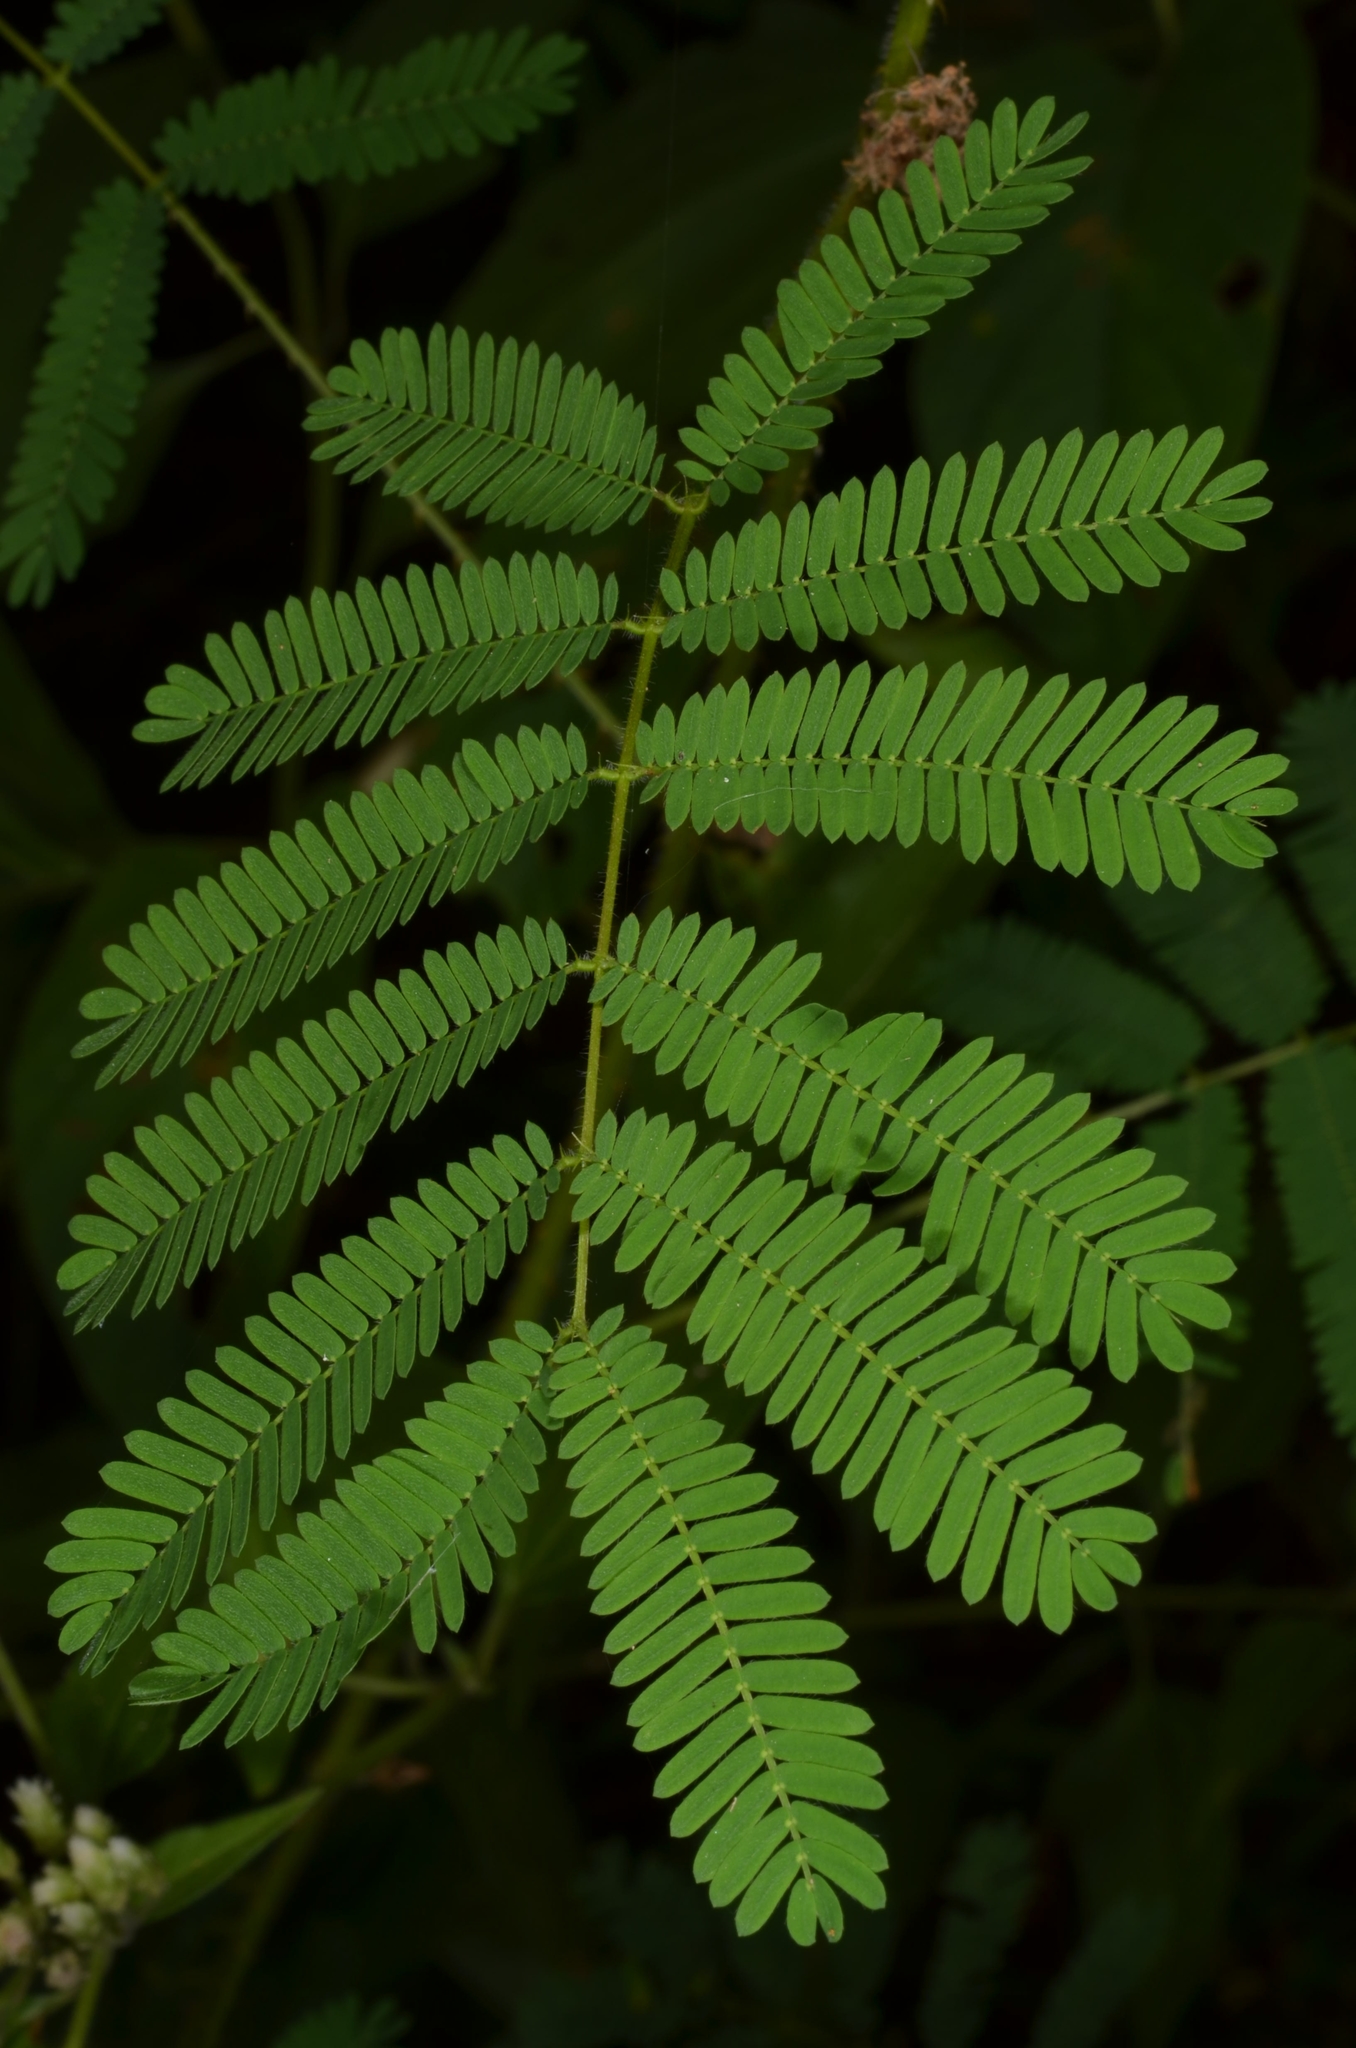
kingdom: Plantae
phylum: Tracheophyta
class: Magnoliopsida
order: Fabales
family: Fabaceae
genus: Mimosa
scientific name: Mimosa diplotricha
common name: Giant sensitive-plant
